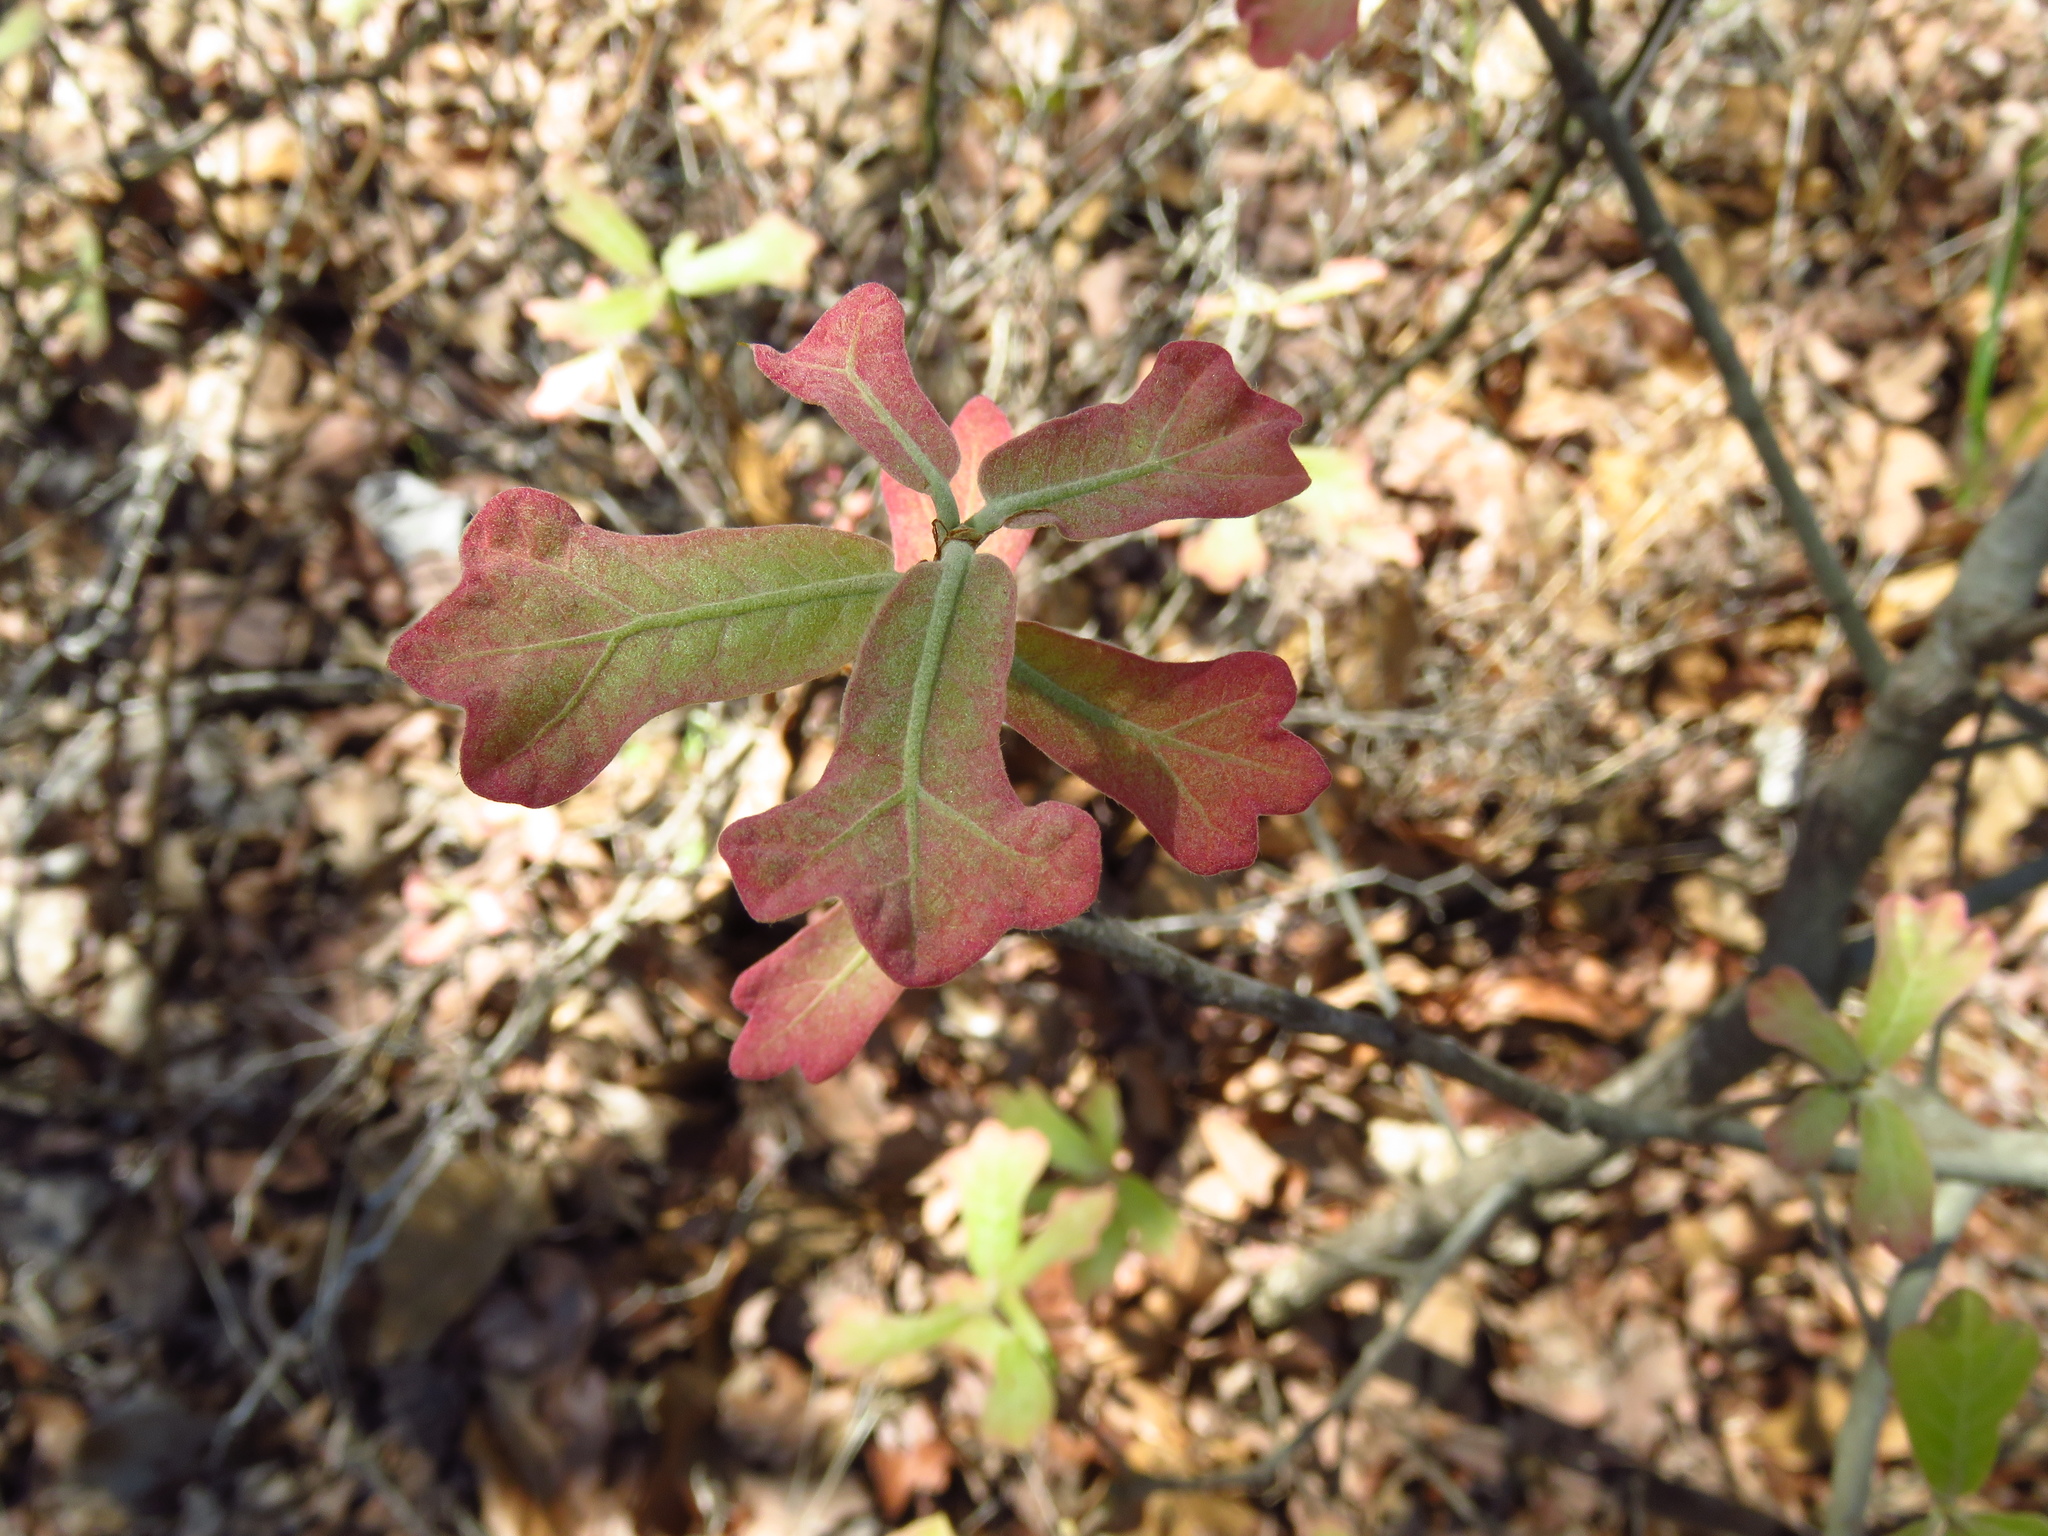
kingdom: Plantae
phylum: Tracheophyta
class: Magnoliopsida
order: Fagales
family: Fagaceae
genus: Quercus
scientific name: Quercus marilandica
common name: Blackjack oak
